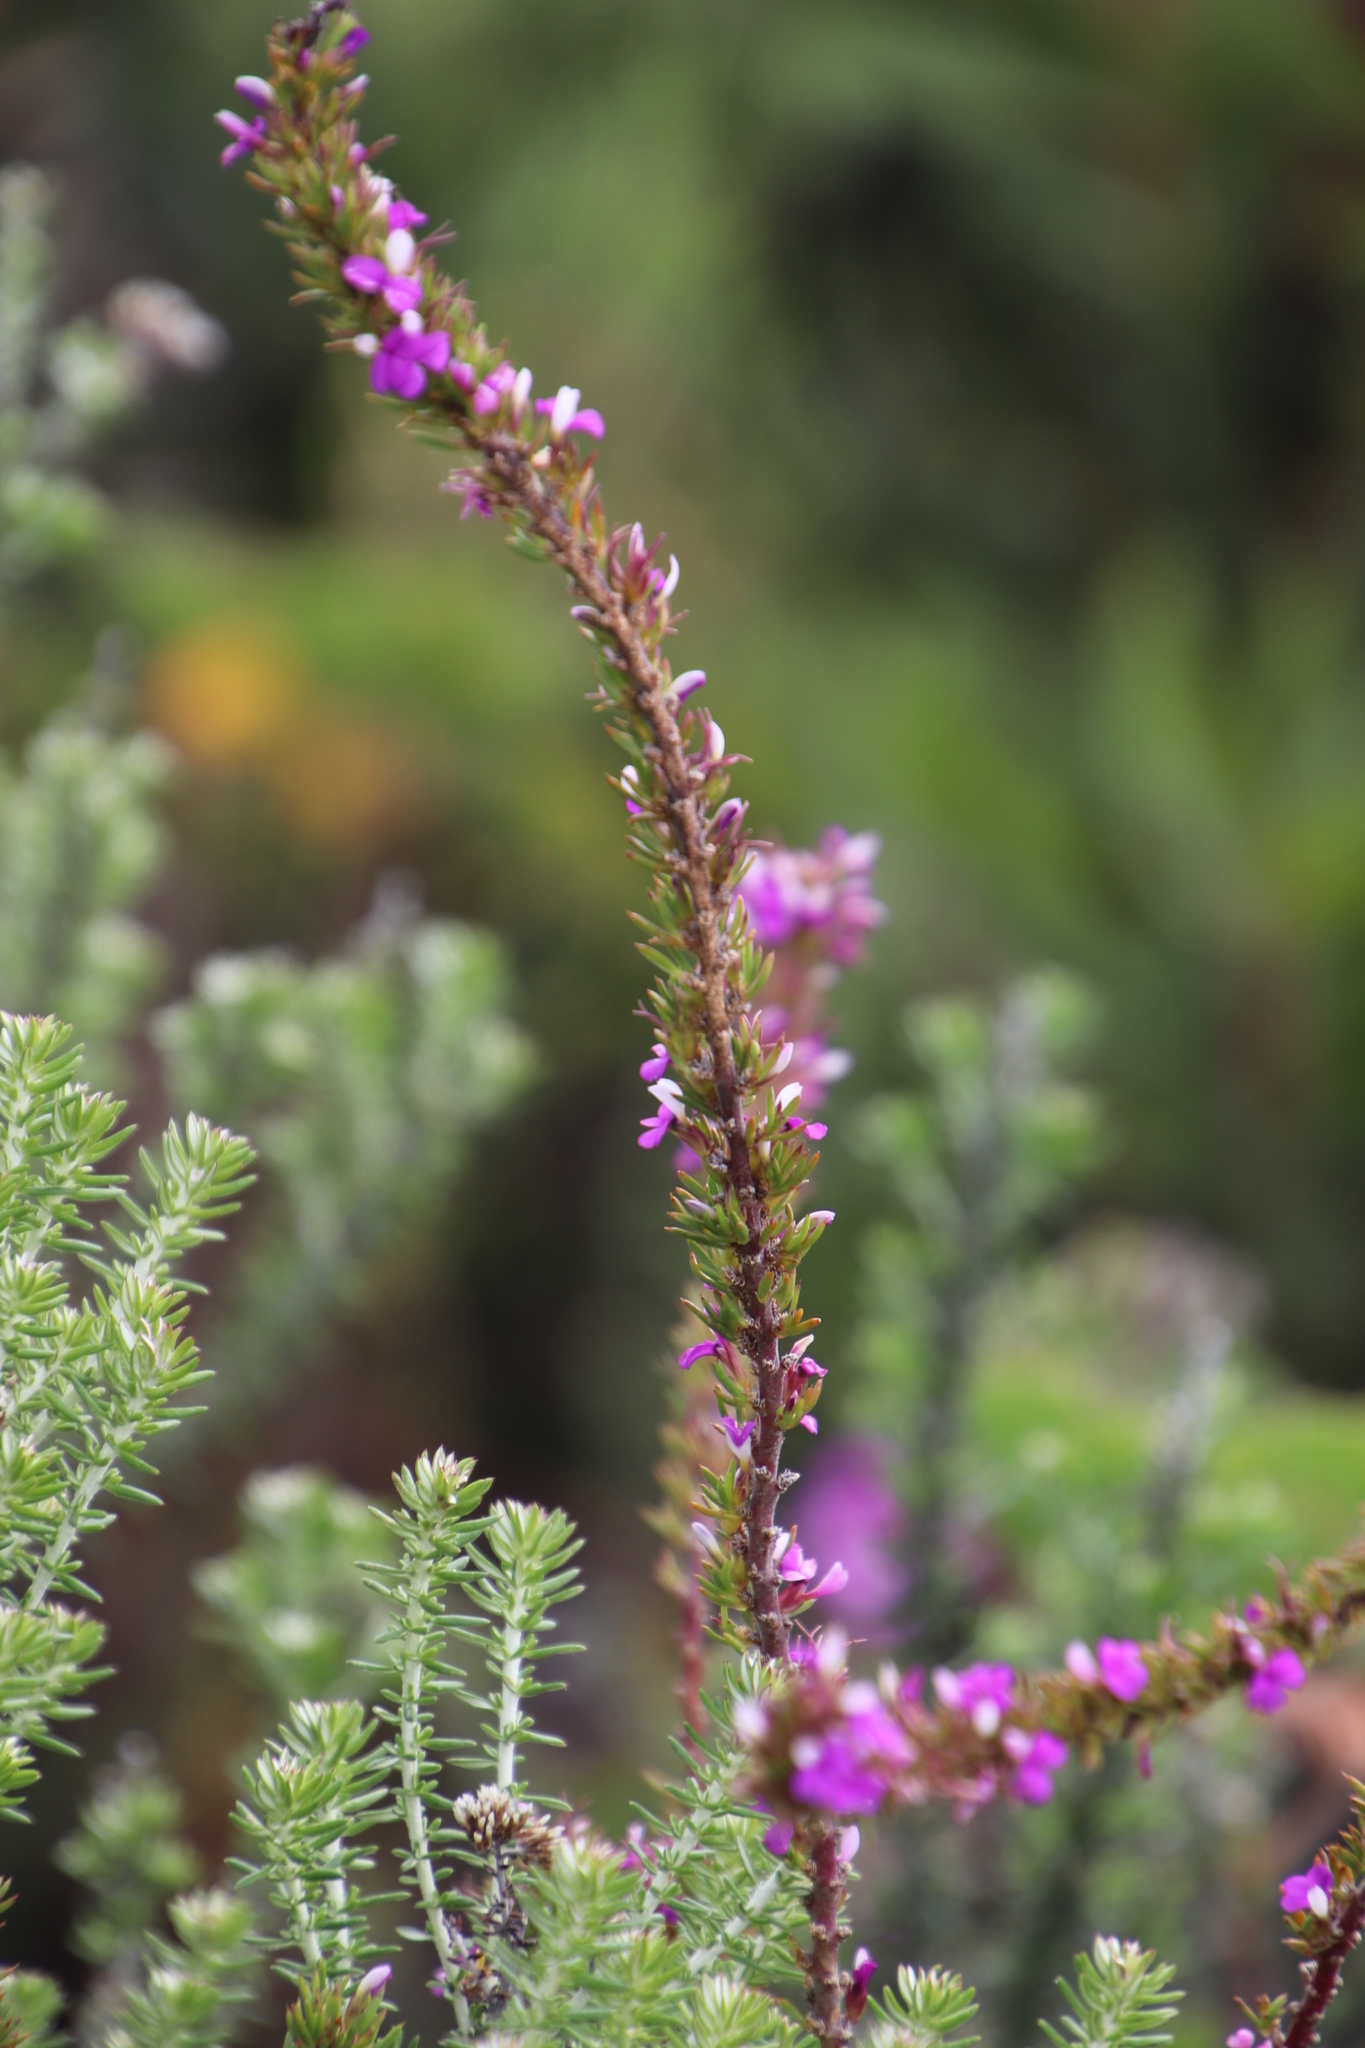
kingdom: Plantae
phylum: Tracheophyta
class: Magnoliopsida
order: Fabales
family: Polygalaceae
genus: Muraltia
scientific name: Muraltia heisteria
